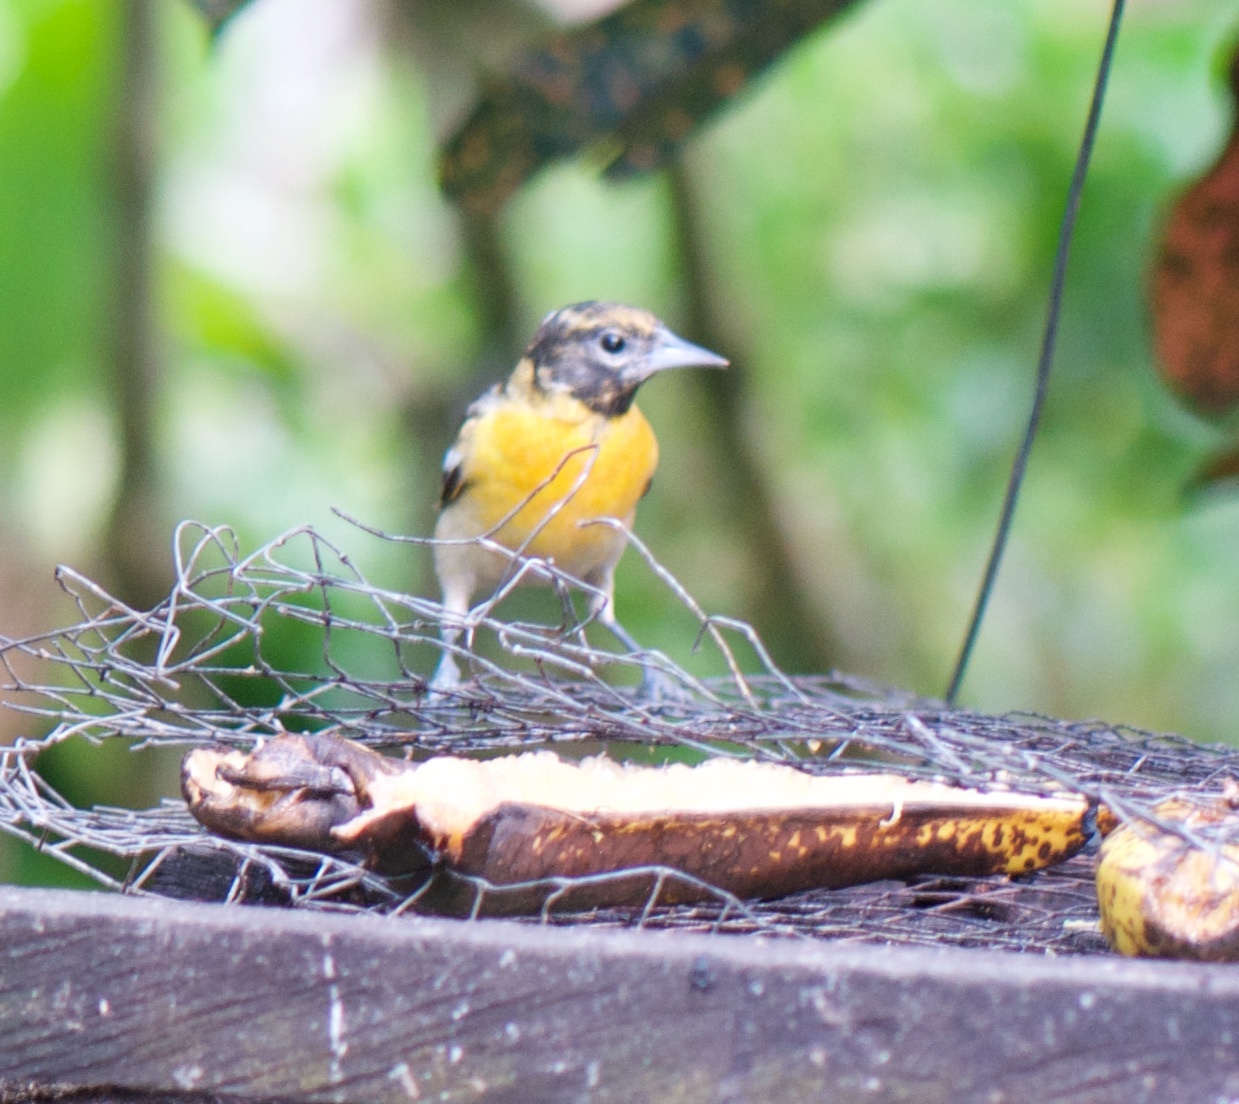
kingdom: Animalia
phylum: Chordata
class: Aves
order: Passeriformes
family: Icteridae
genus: Icterus
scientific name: Icterus galbula
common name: Baltimore oriole
